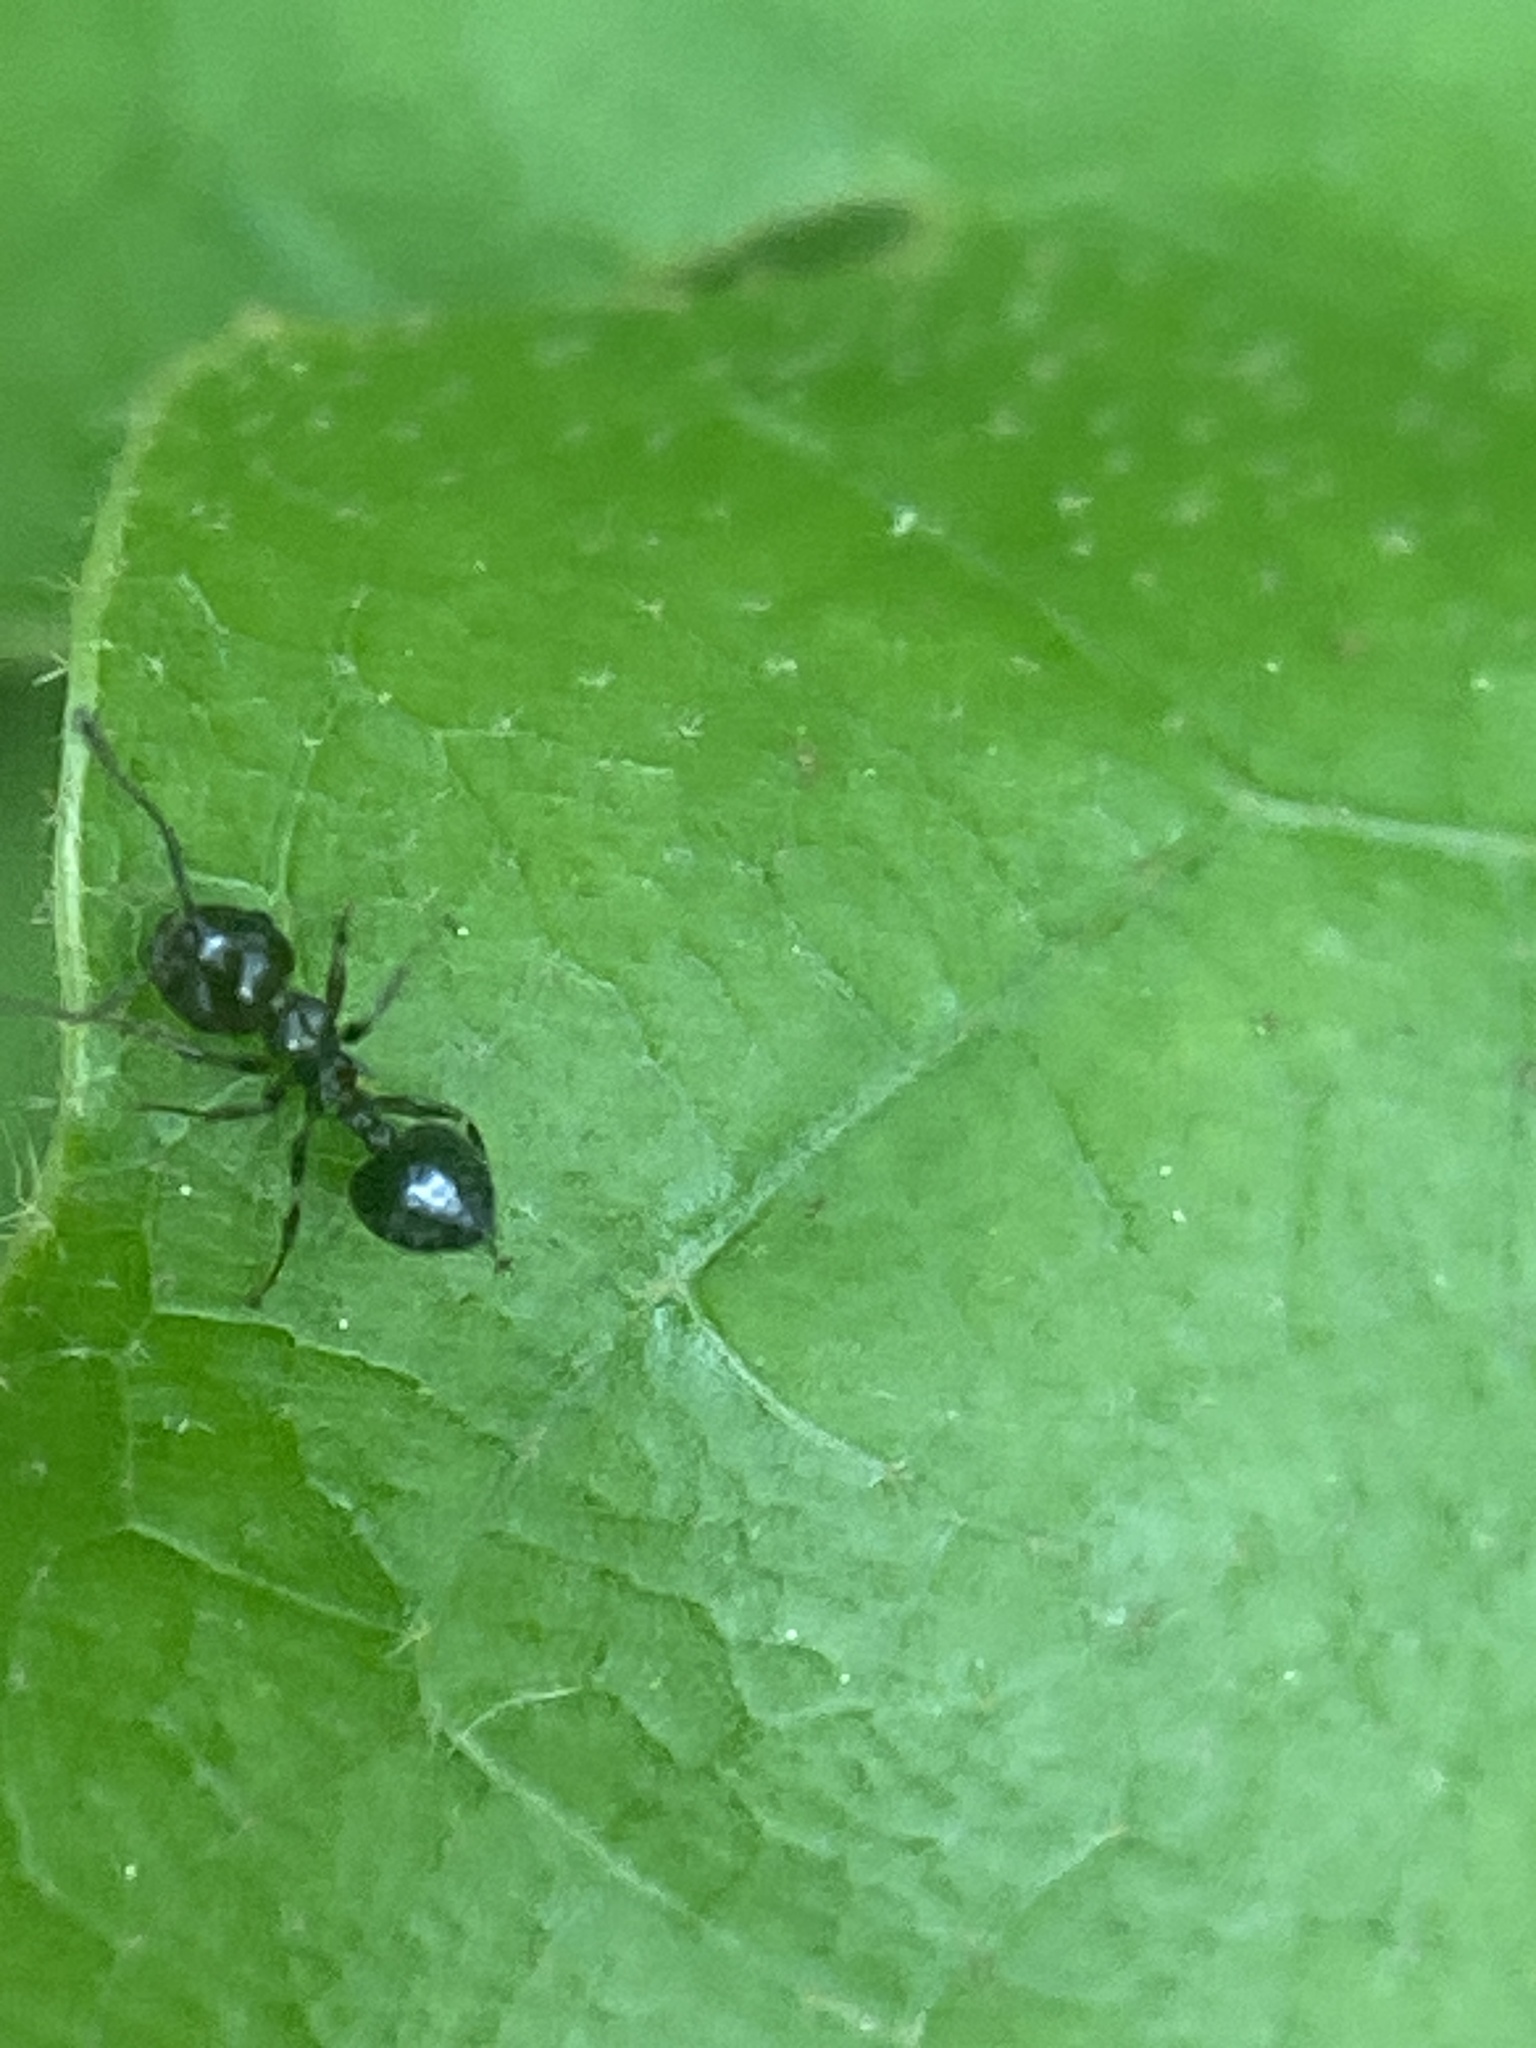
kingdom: Animalia
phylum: Arthropoda
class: Insecta
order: Hymenoptera
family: Formicidae
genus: Crematogaster
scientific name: Crematogaster ashmeadi
